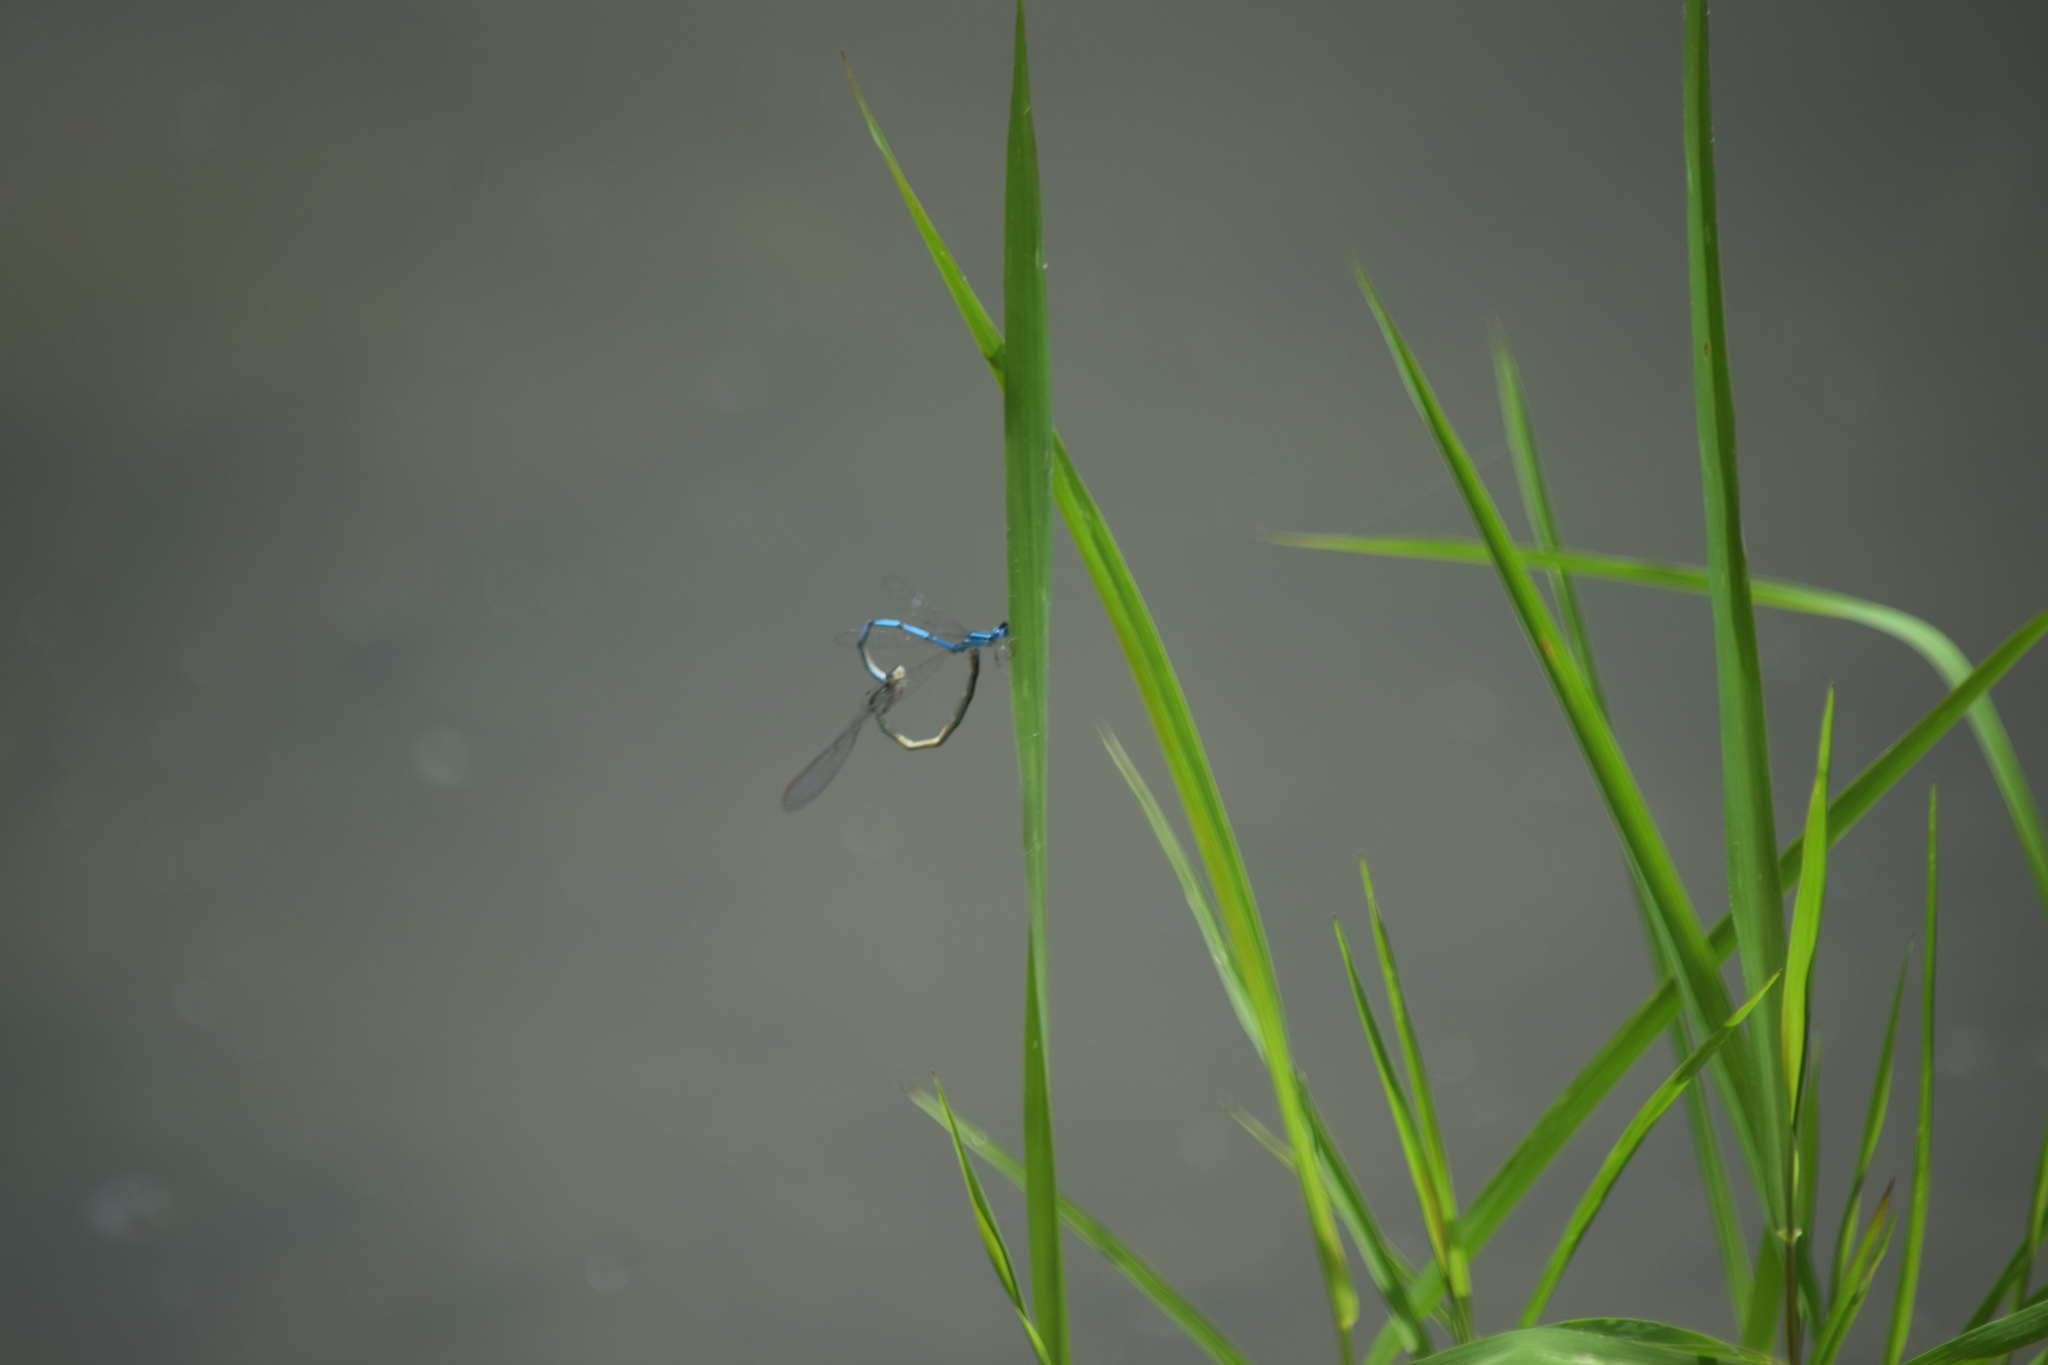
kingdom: Animalia
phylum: Arthropoda
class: Insecta
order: Odonata
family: Coenagrionidae
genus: Enallagma
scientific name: Enallagma basidens
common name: Double-striped bluet
